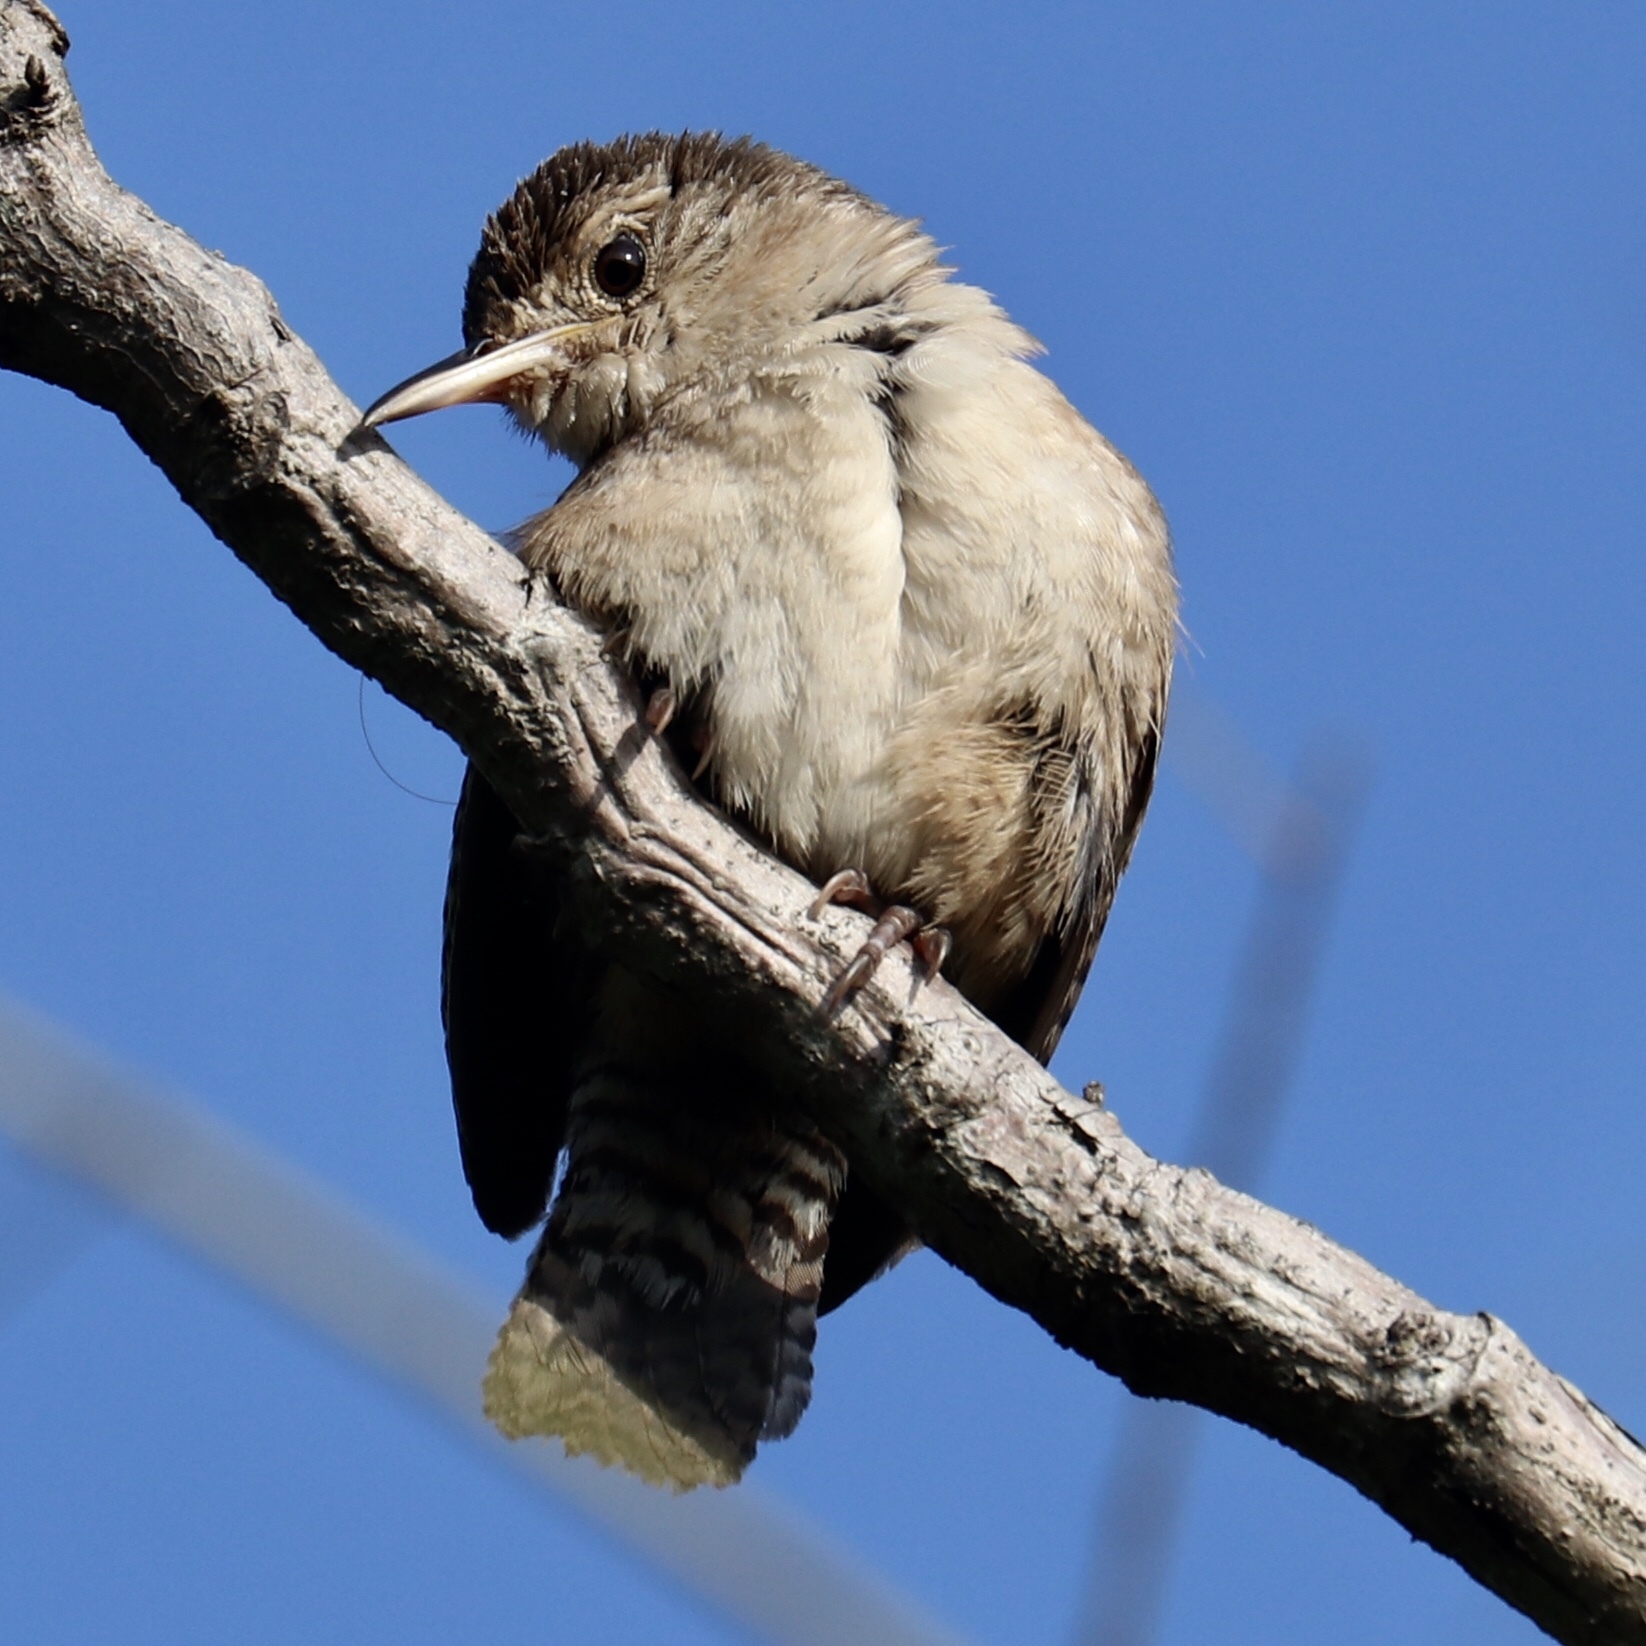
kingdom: Animalia
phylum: Chordata
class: Aves
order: Passeriformes
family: Troglodytidae
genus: Troglodytes
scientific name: Troglodytes aedon
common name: House wren
